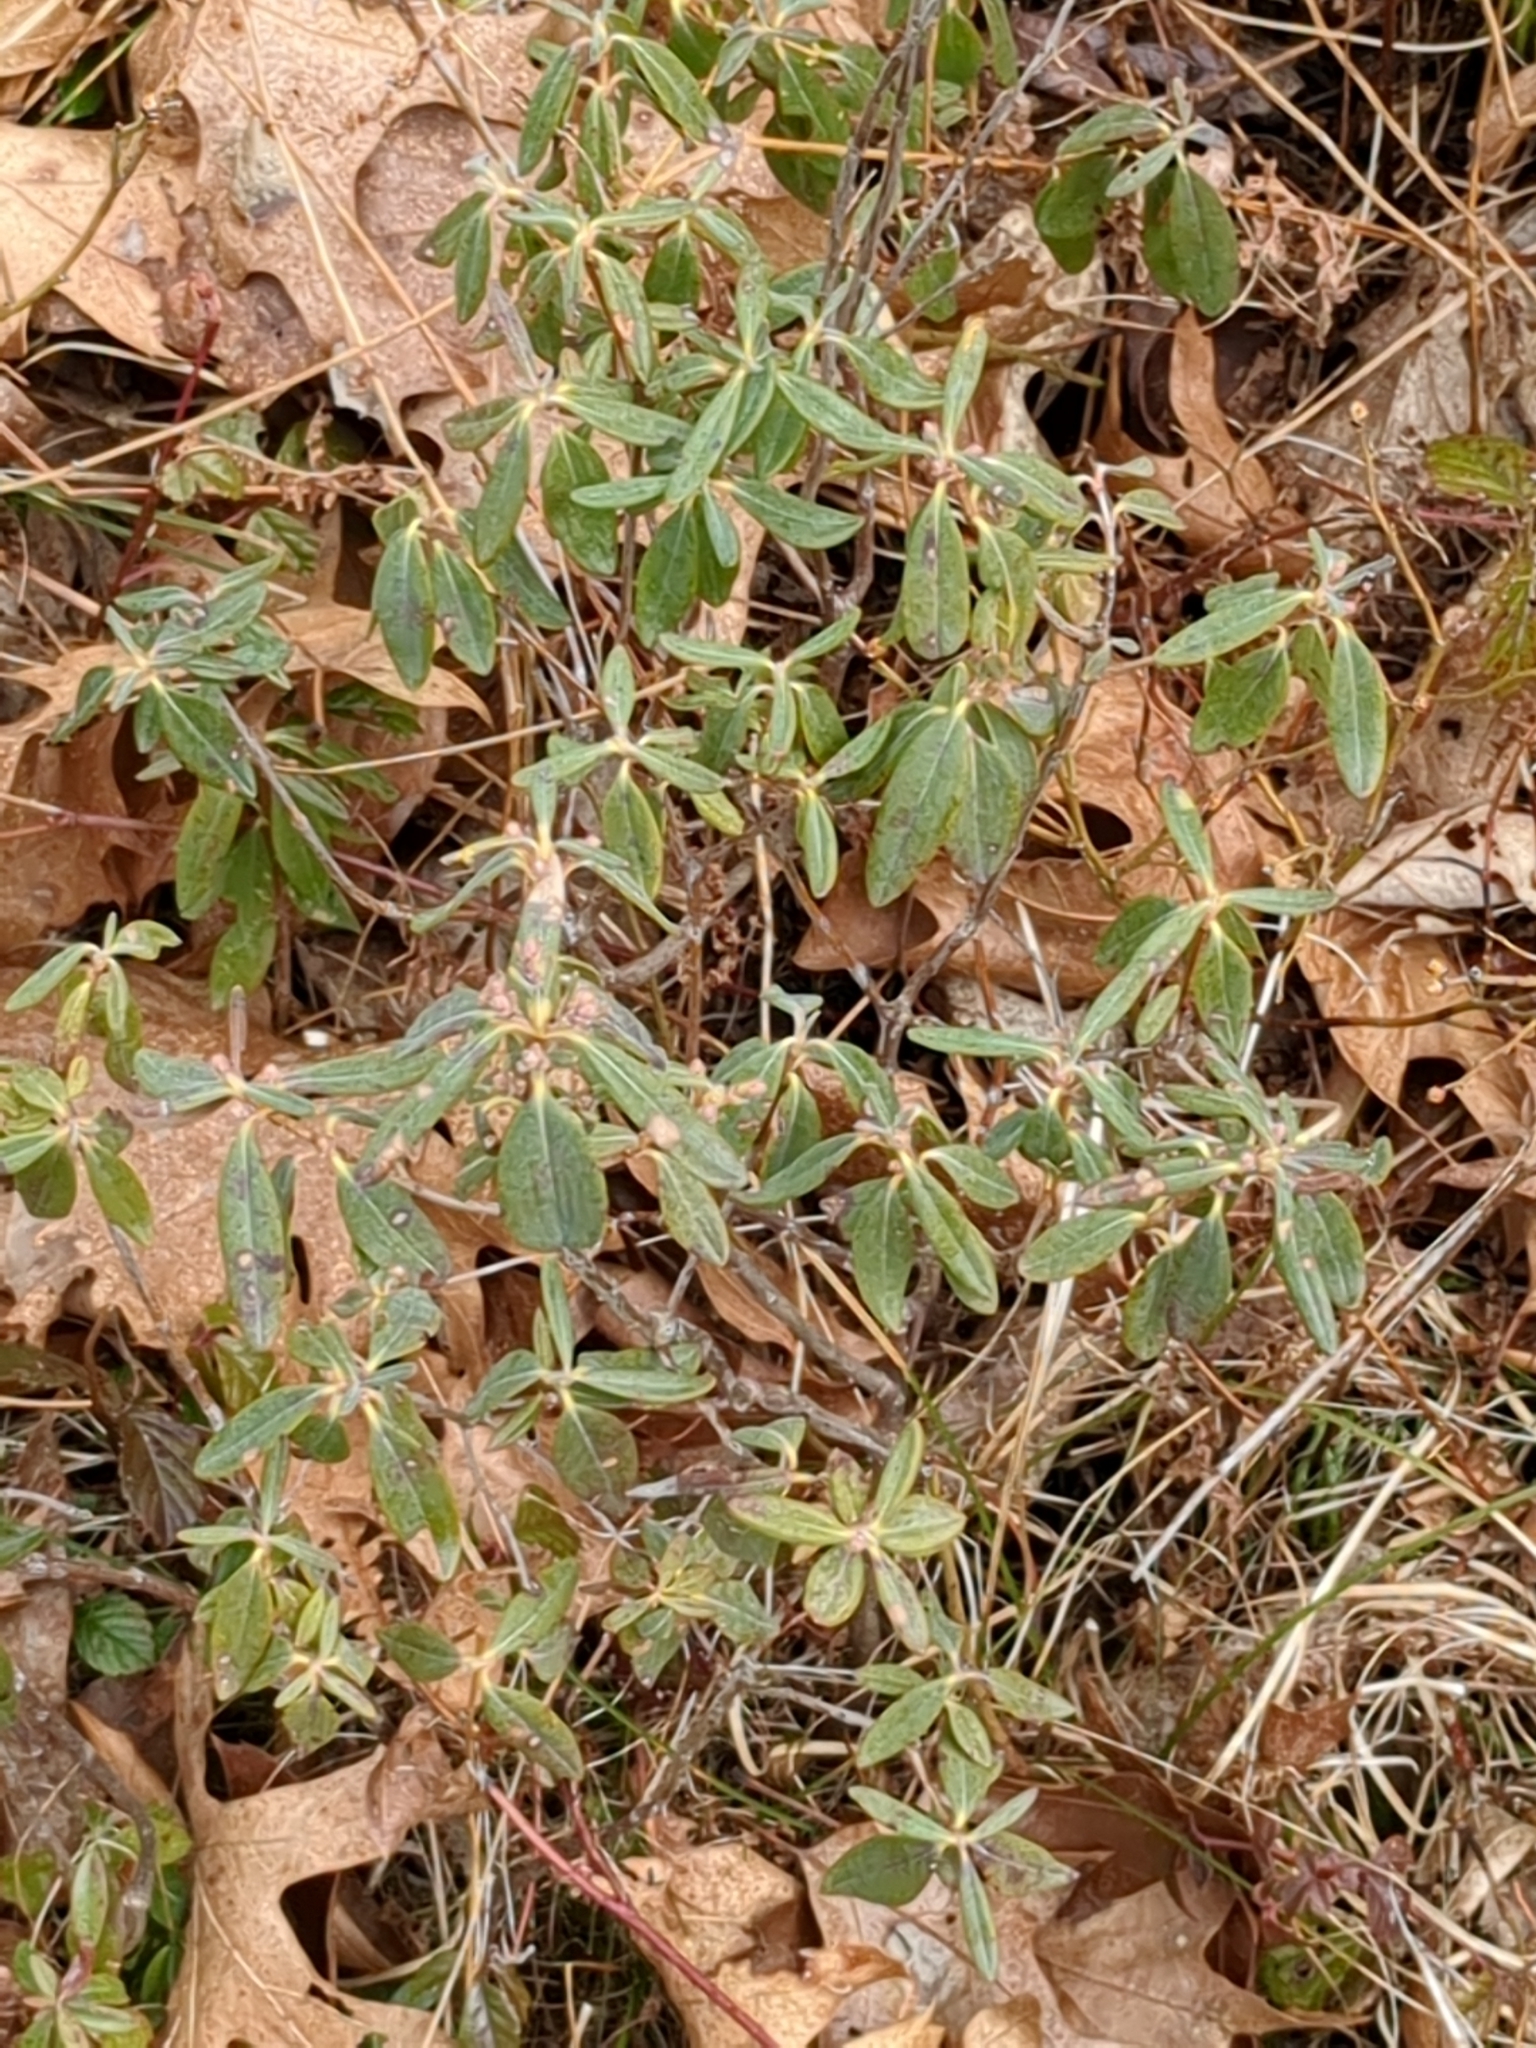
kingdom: Plantae
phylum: Tracheophyta
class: Magnoliopsida
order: Ericales
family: Ericaceae
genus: Kalmia
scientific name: Kalmia angustifolia
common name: Sheep-laurel
